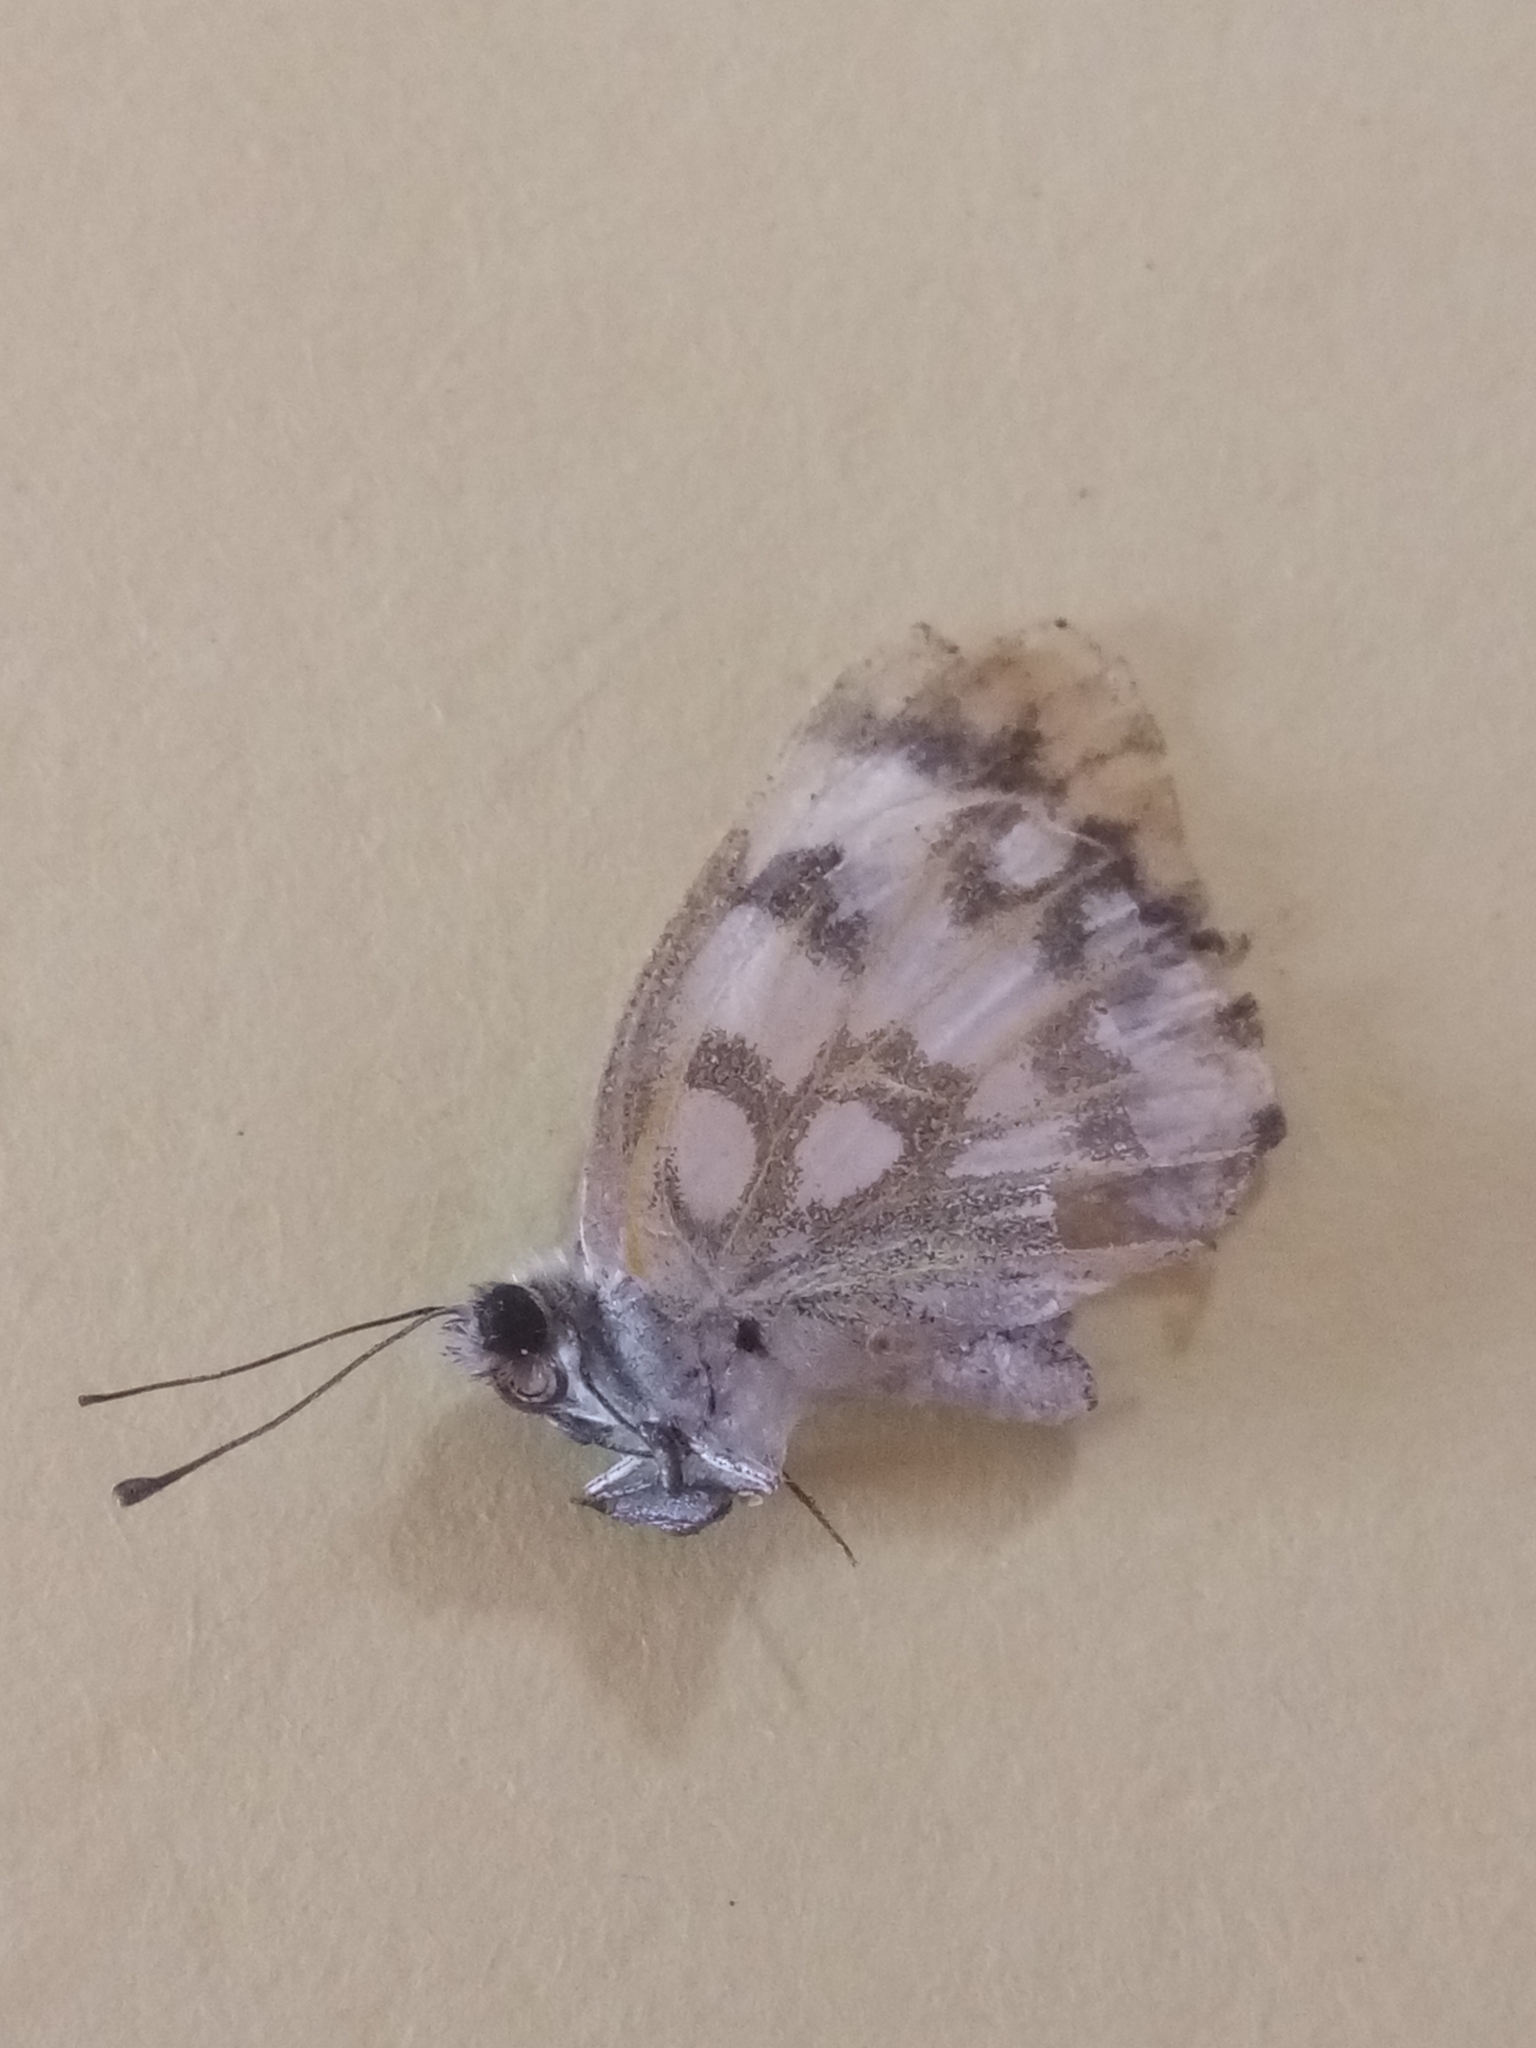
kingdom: Animalia
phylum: Arthropoda
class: Insecta
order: Lepidoptera
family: Pieridae
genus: Pontia
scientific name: Pontia glauconome
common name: Desert bath white
